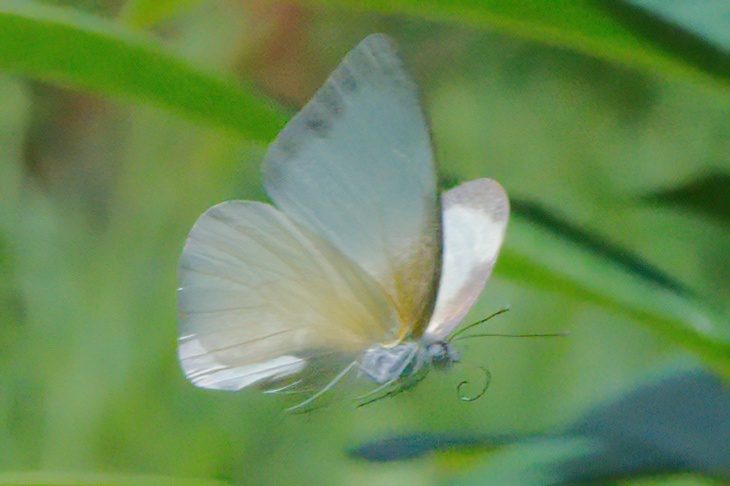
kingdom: Animalia
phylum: Arthropoda
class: Insecta
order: Lepidoptera
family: Pieridae
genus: Glutophrissa
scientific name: Glutophrissa drusilla
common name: Florida white
